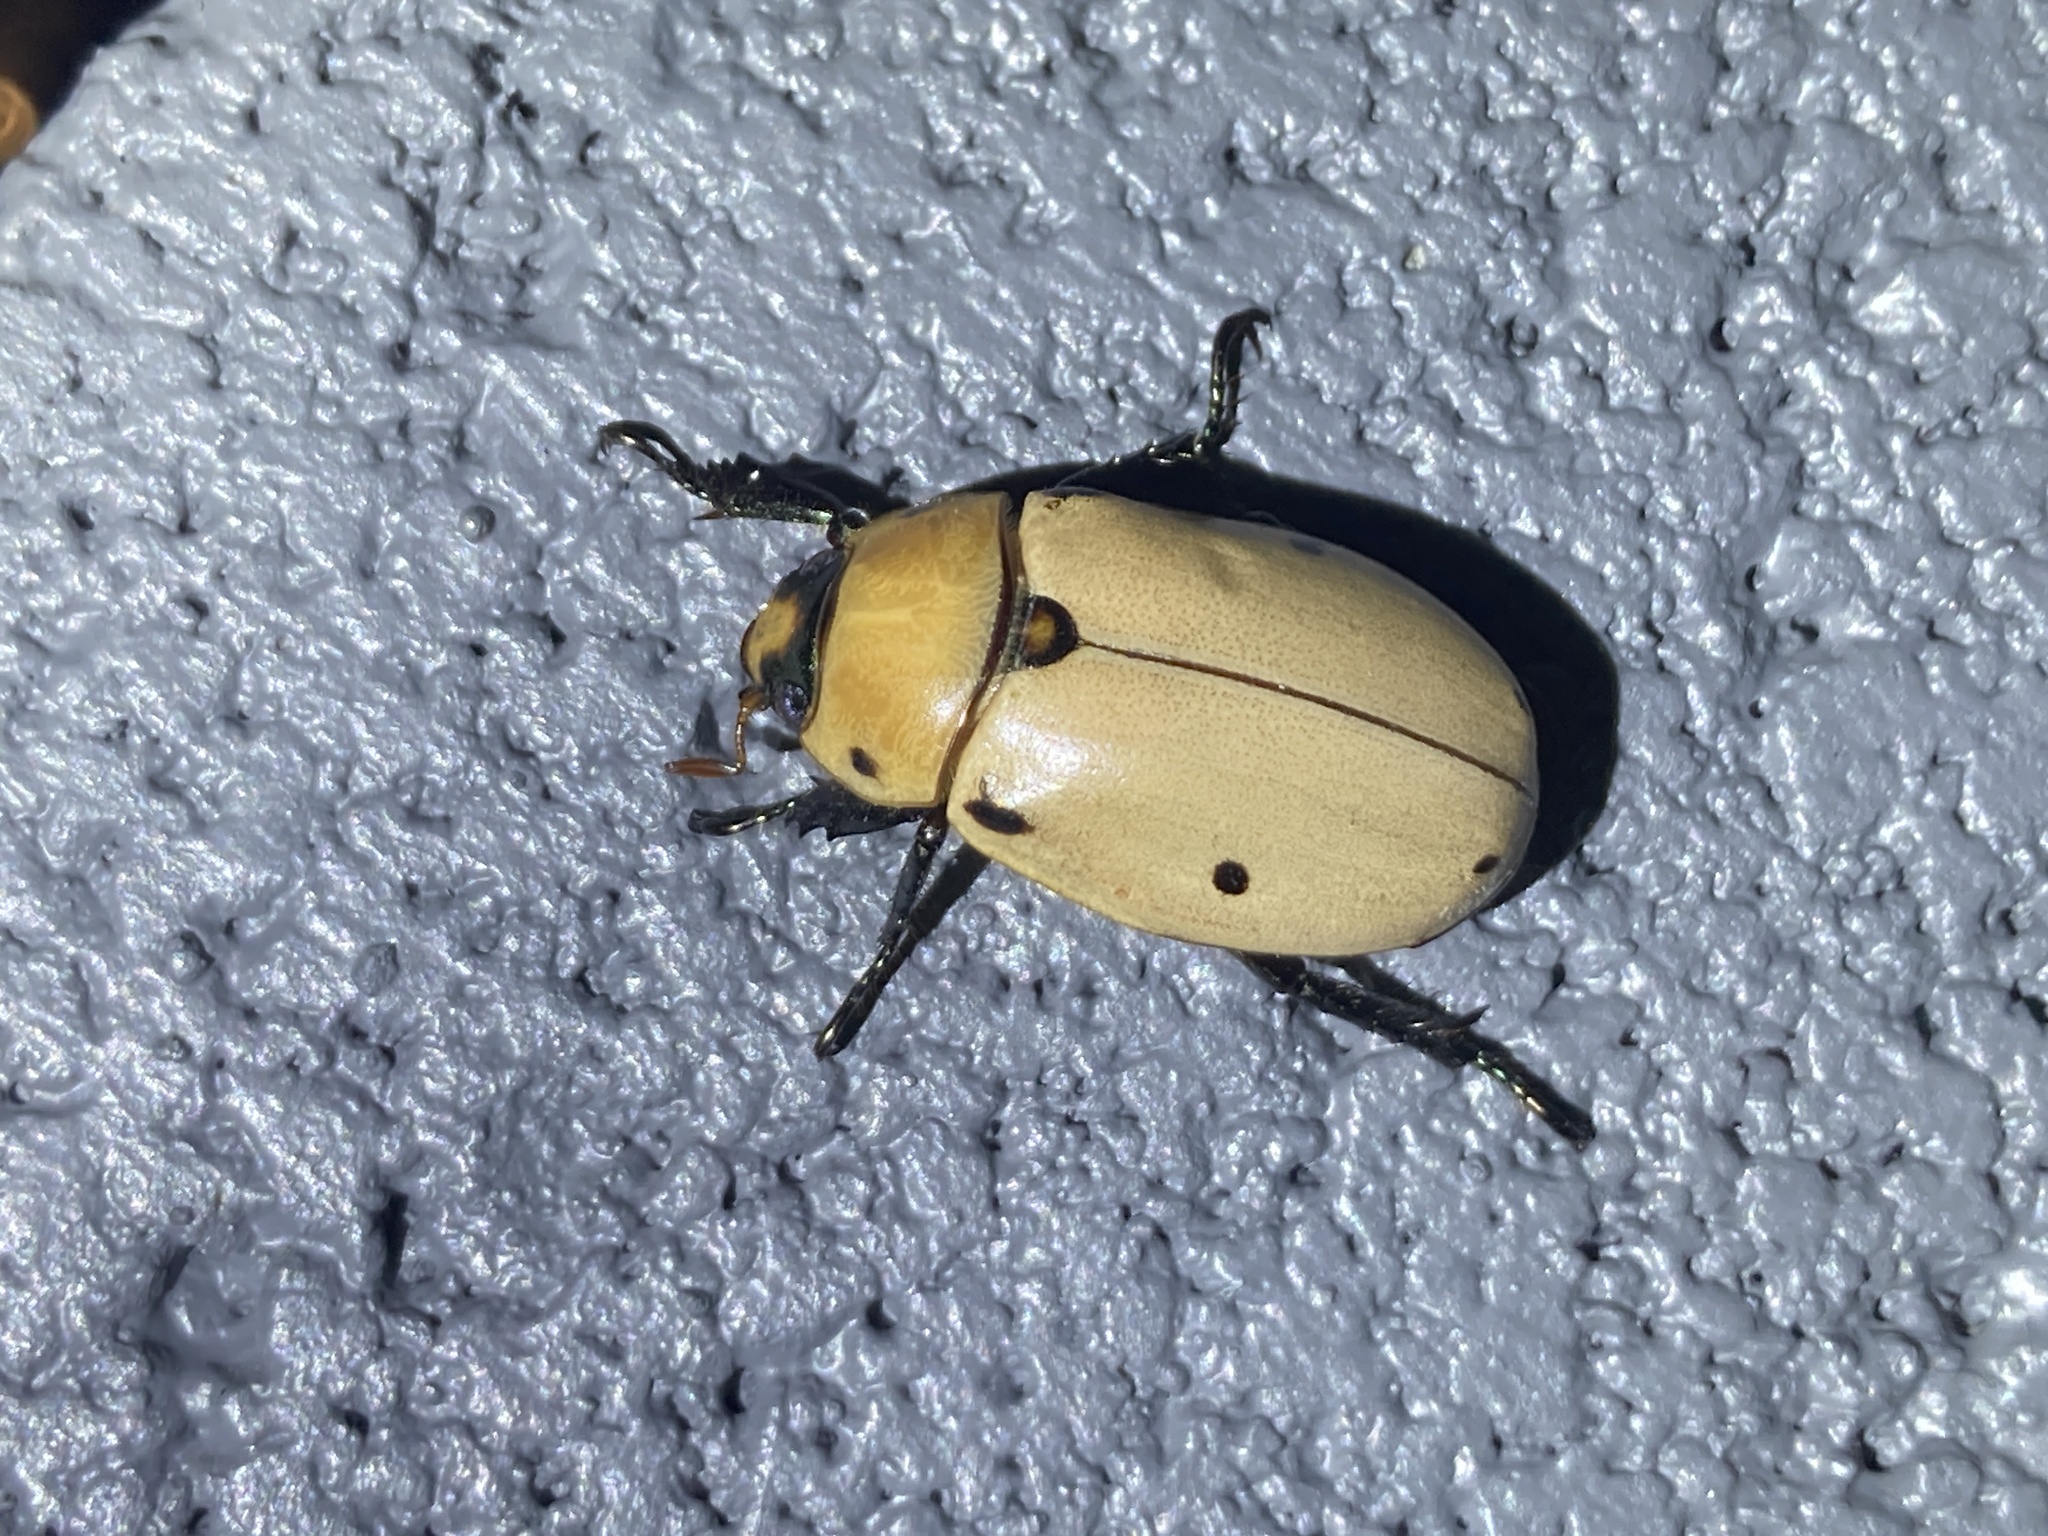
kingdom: Animalia
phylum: Arthropoda
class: Insecta
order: Coleoptera
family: Scarabaeidae
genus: Pelidnota
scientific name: Pelidnota punctata
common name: Grapevine beetle
